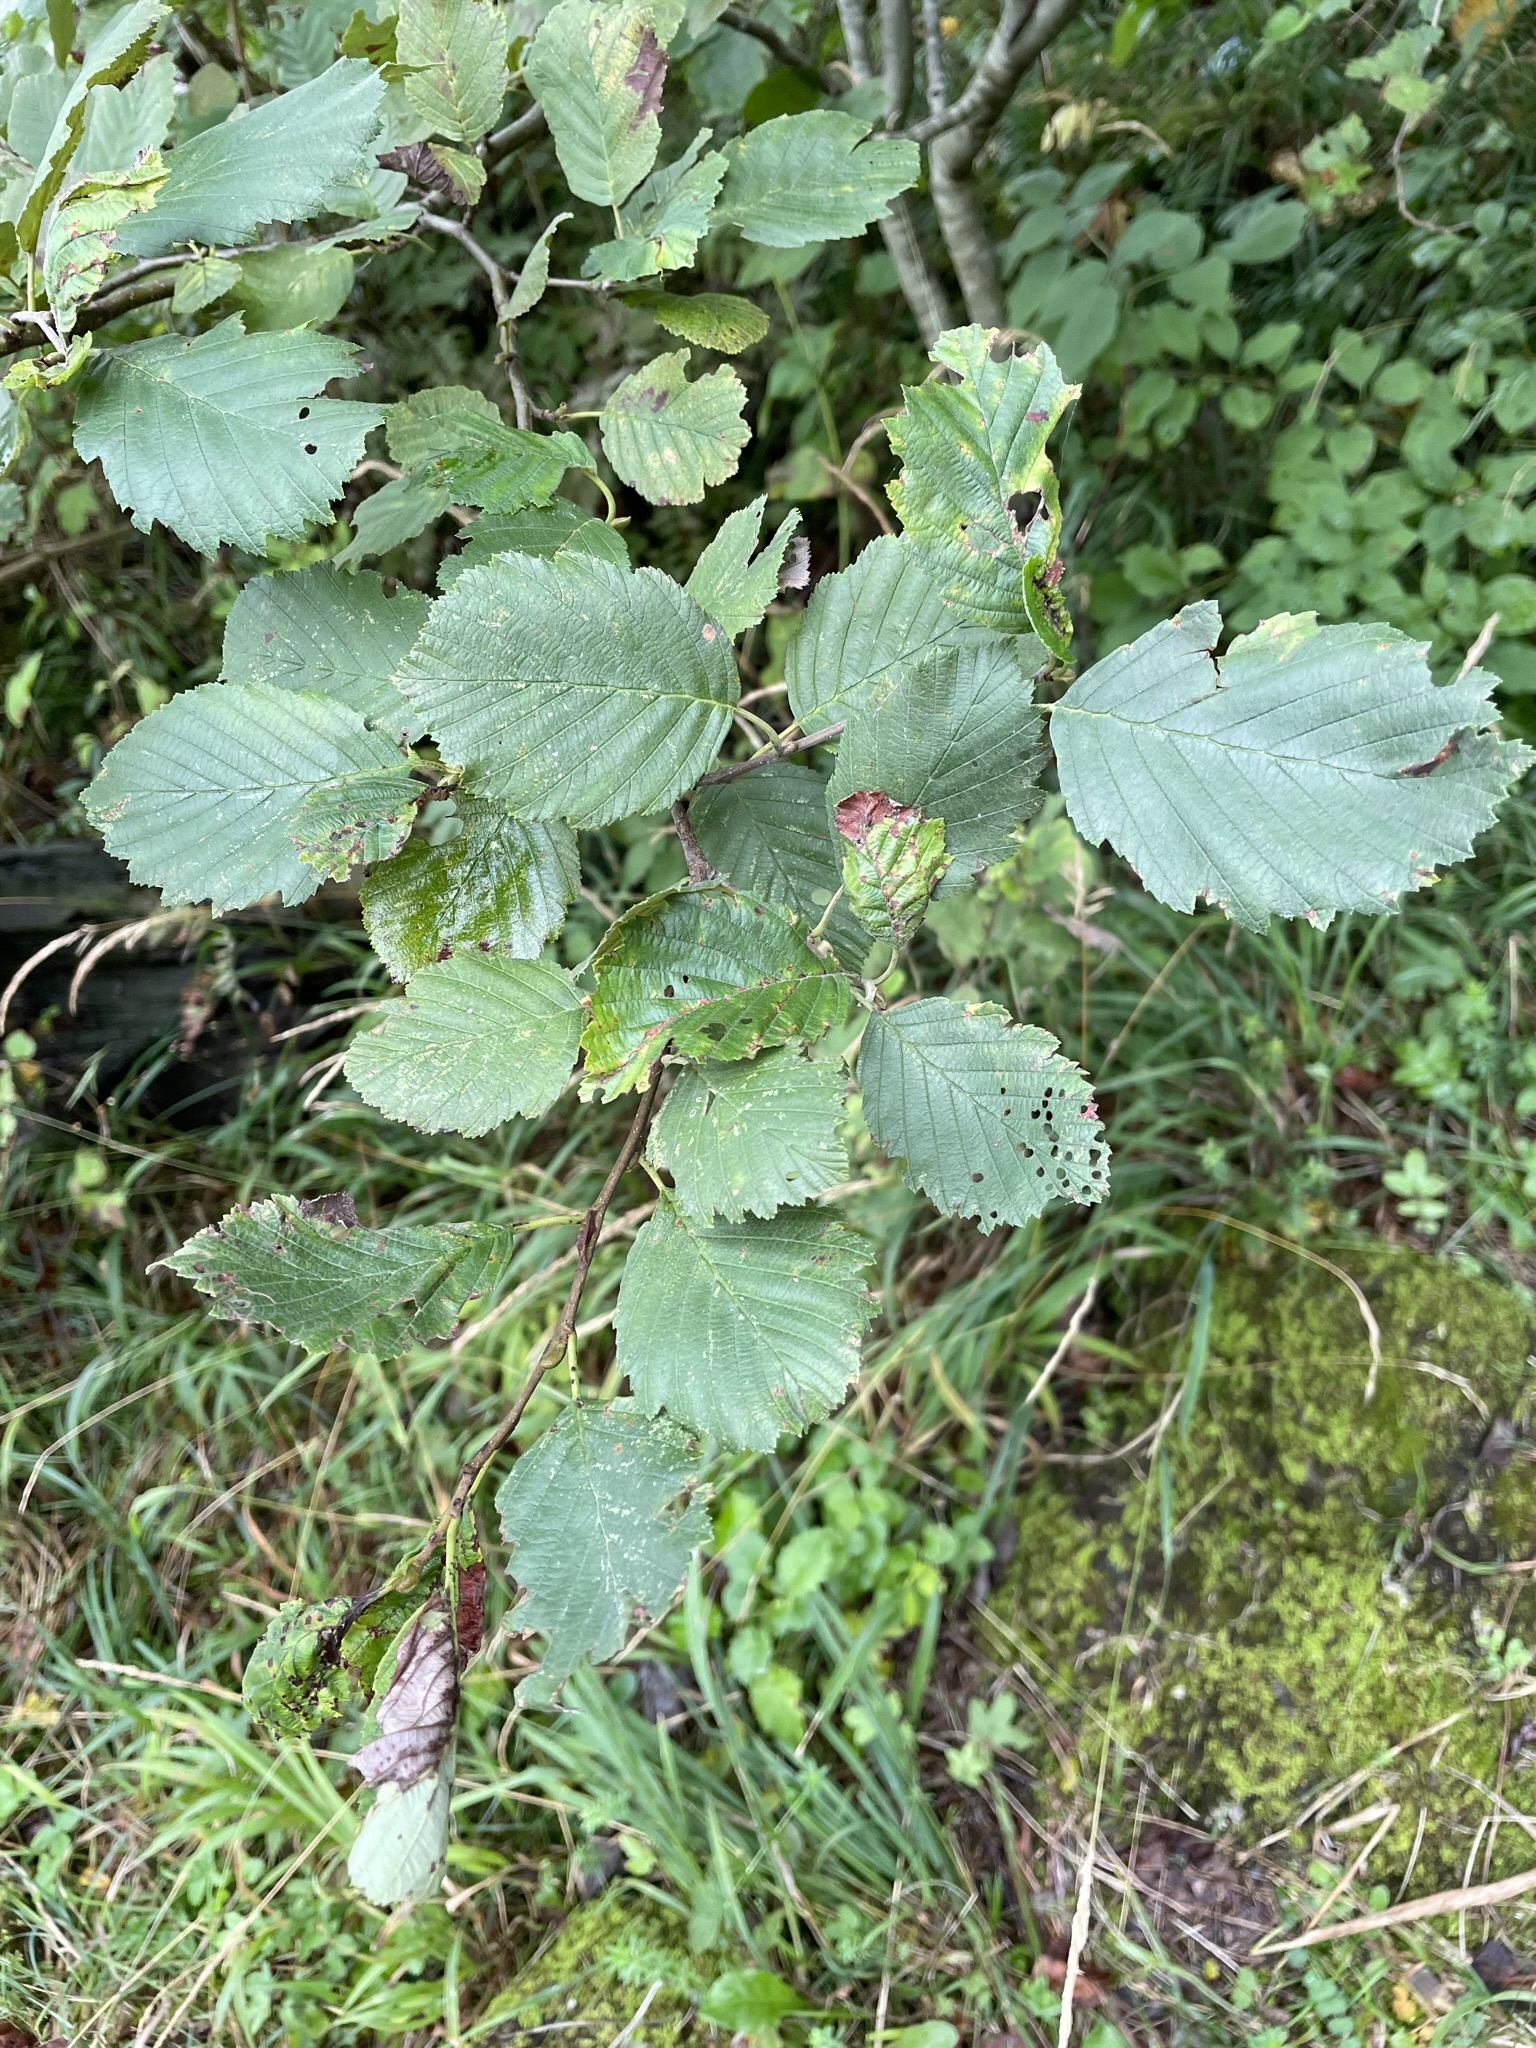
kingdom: Plantae
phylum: Tracheophyta
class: Magnoliopsida
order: Fagales
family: Betulaceae
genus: Alnus
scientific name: Alnus incana
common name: Grey alder
